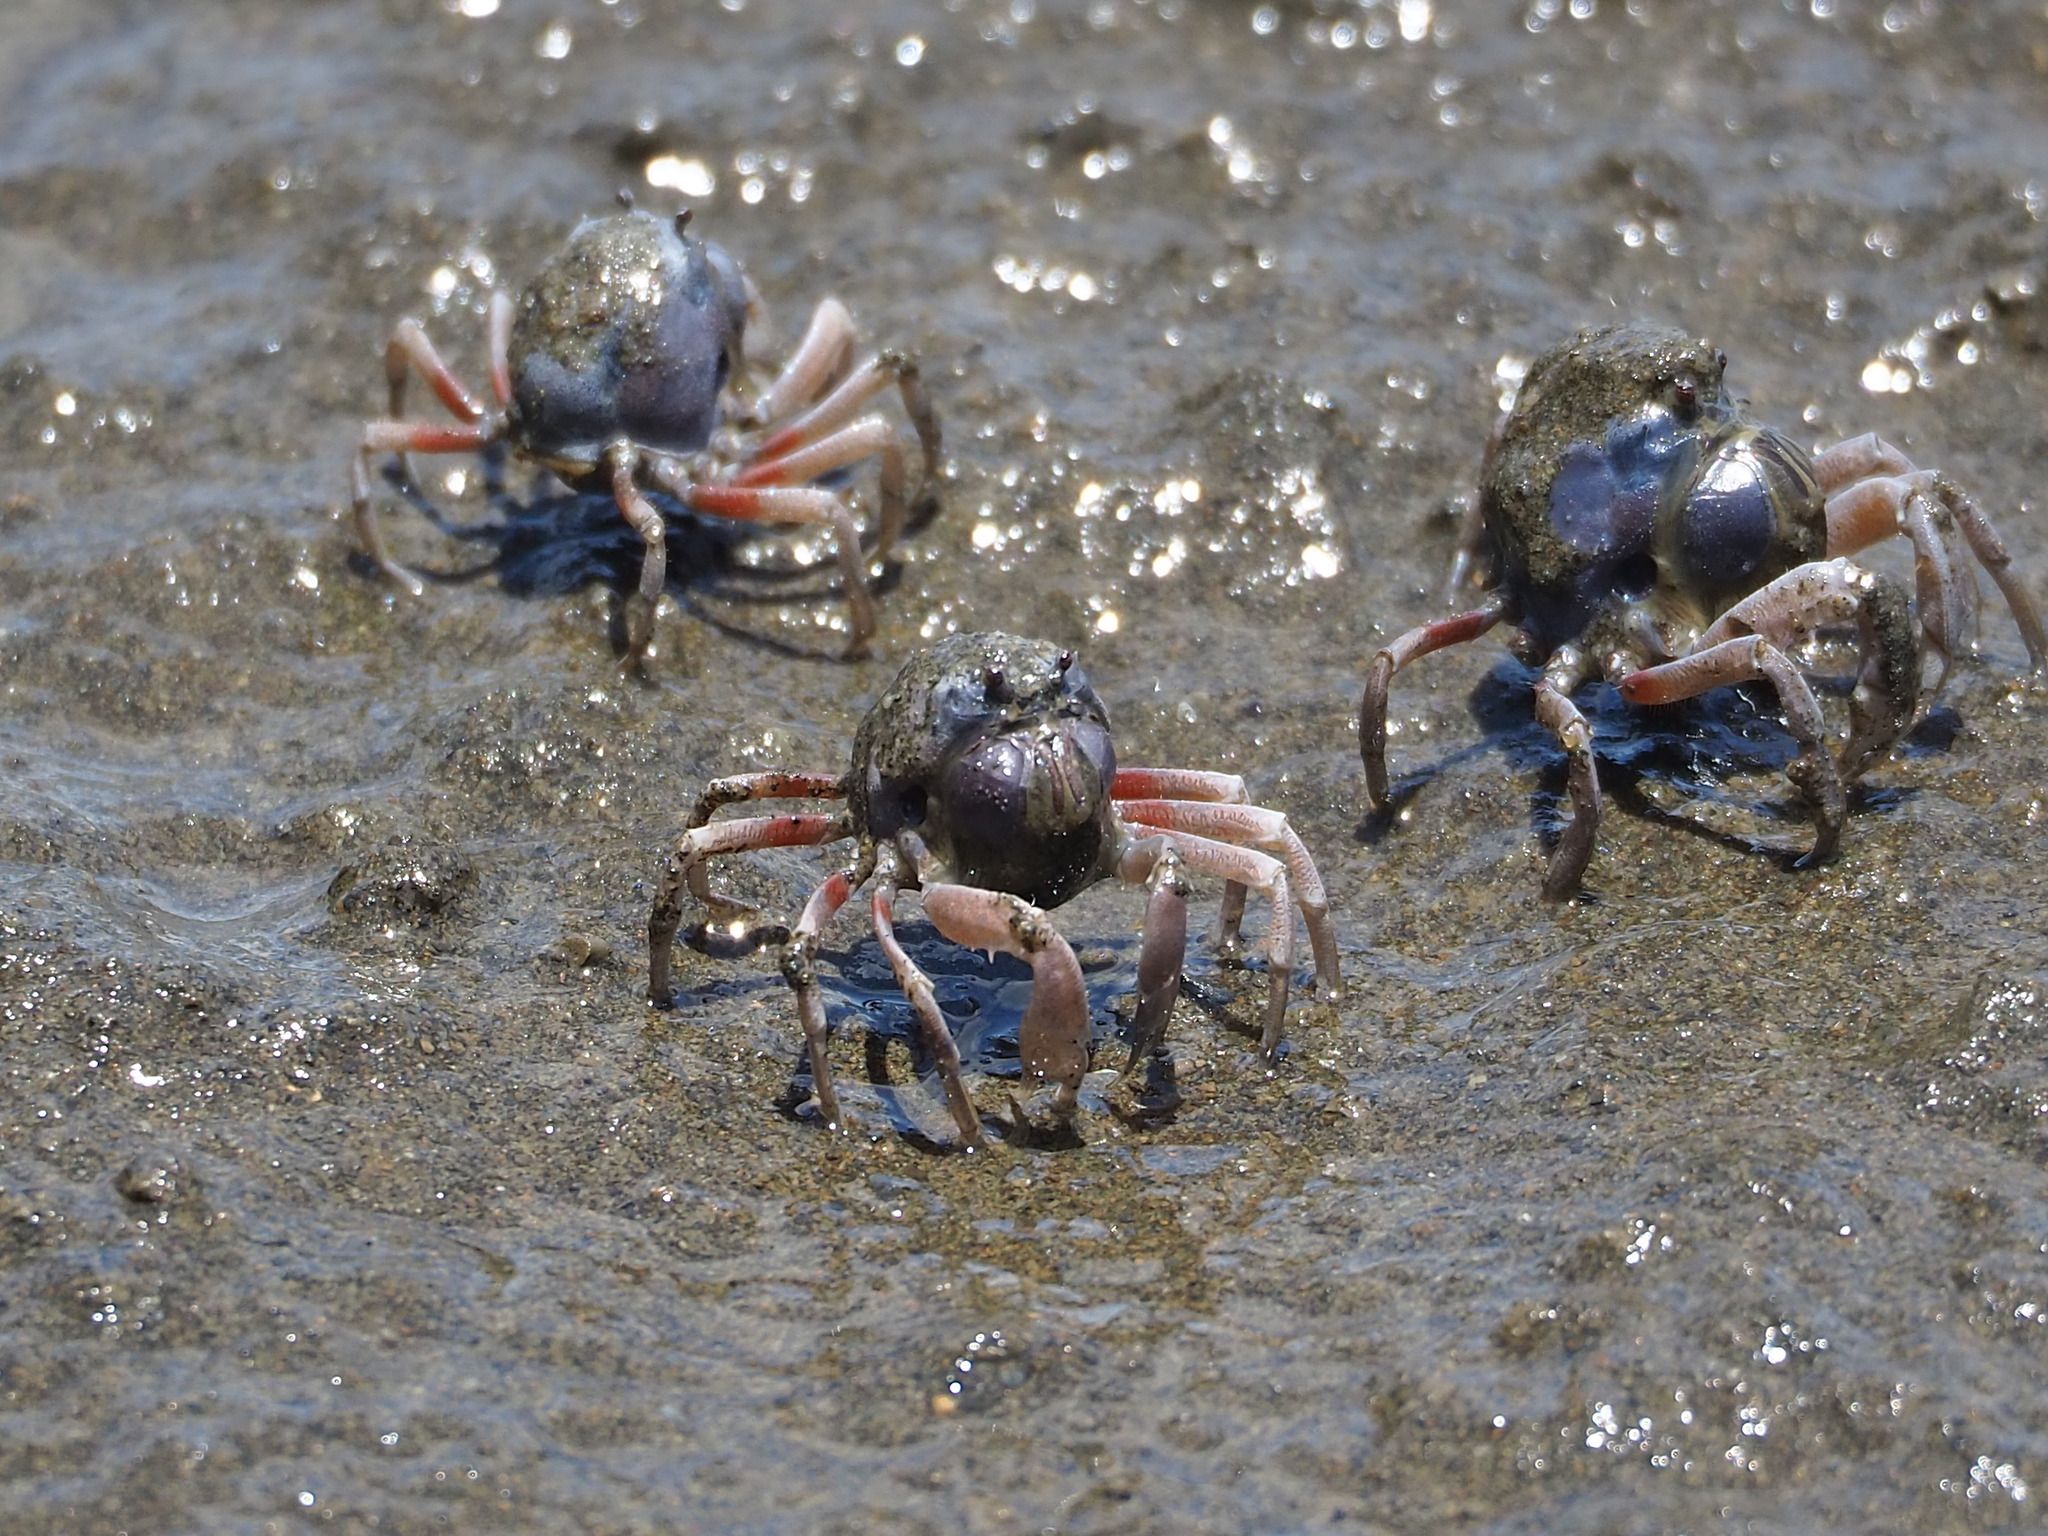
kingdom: Animalia
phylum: Arthropoda
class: Malacostraca
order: Decapoda
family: Mictyridae
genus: Mictyris
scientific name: Mictyris brevidactylus
